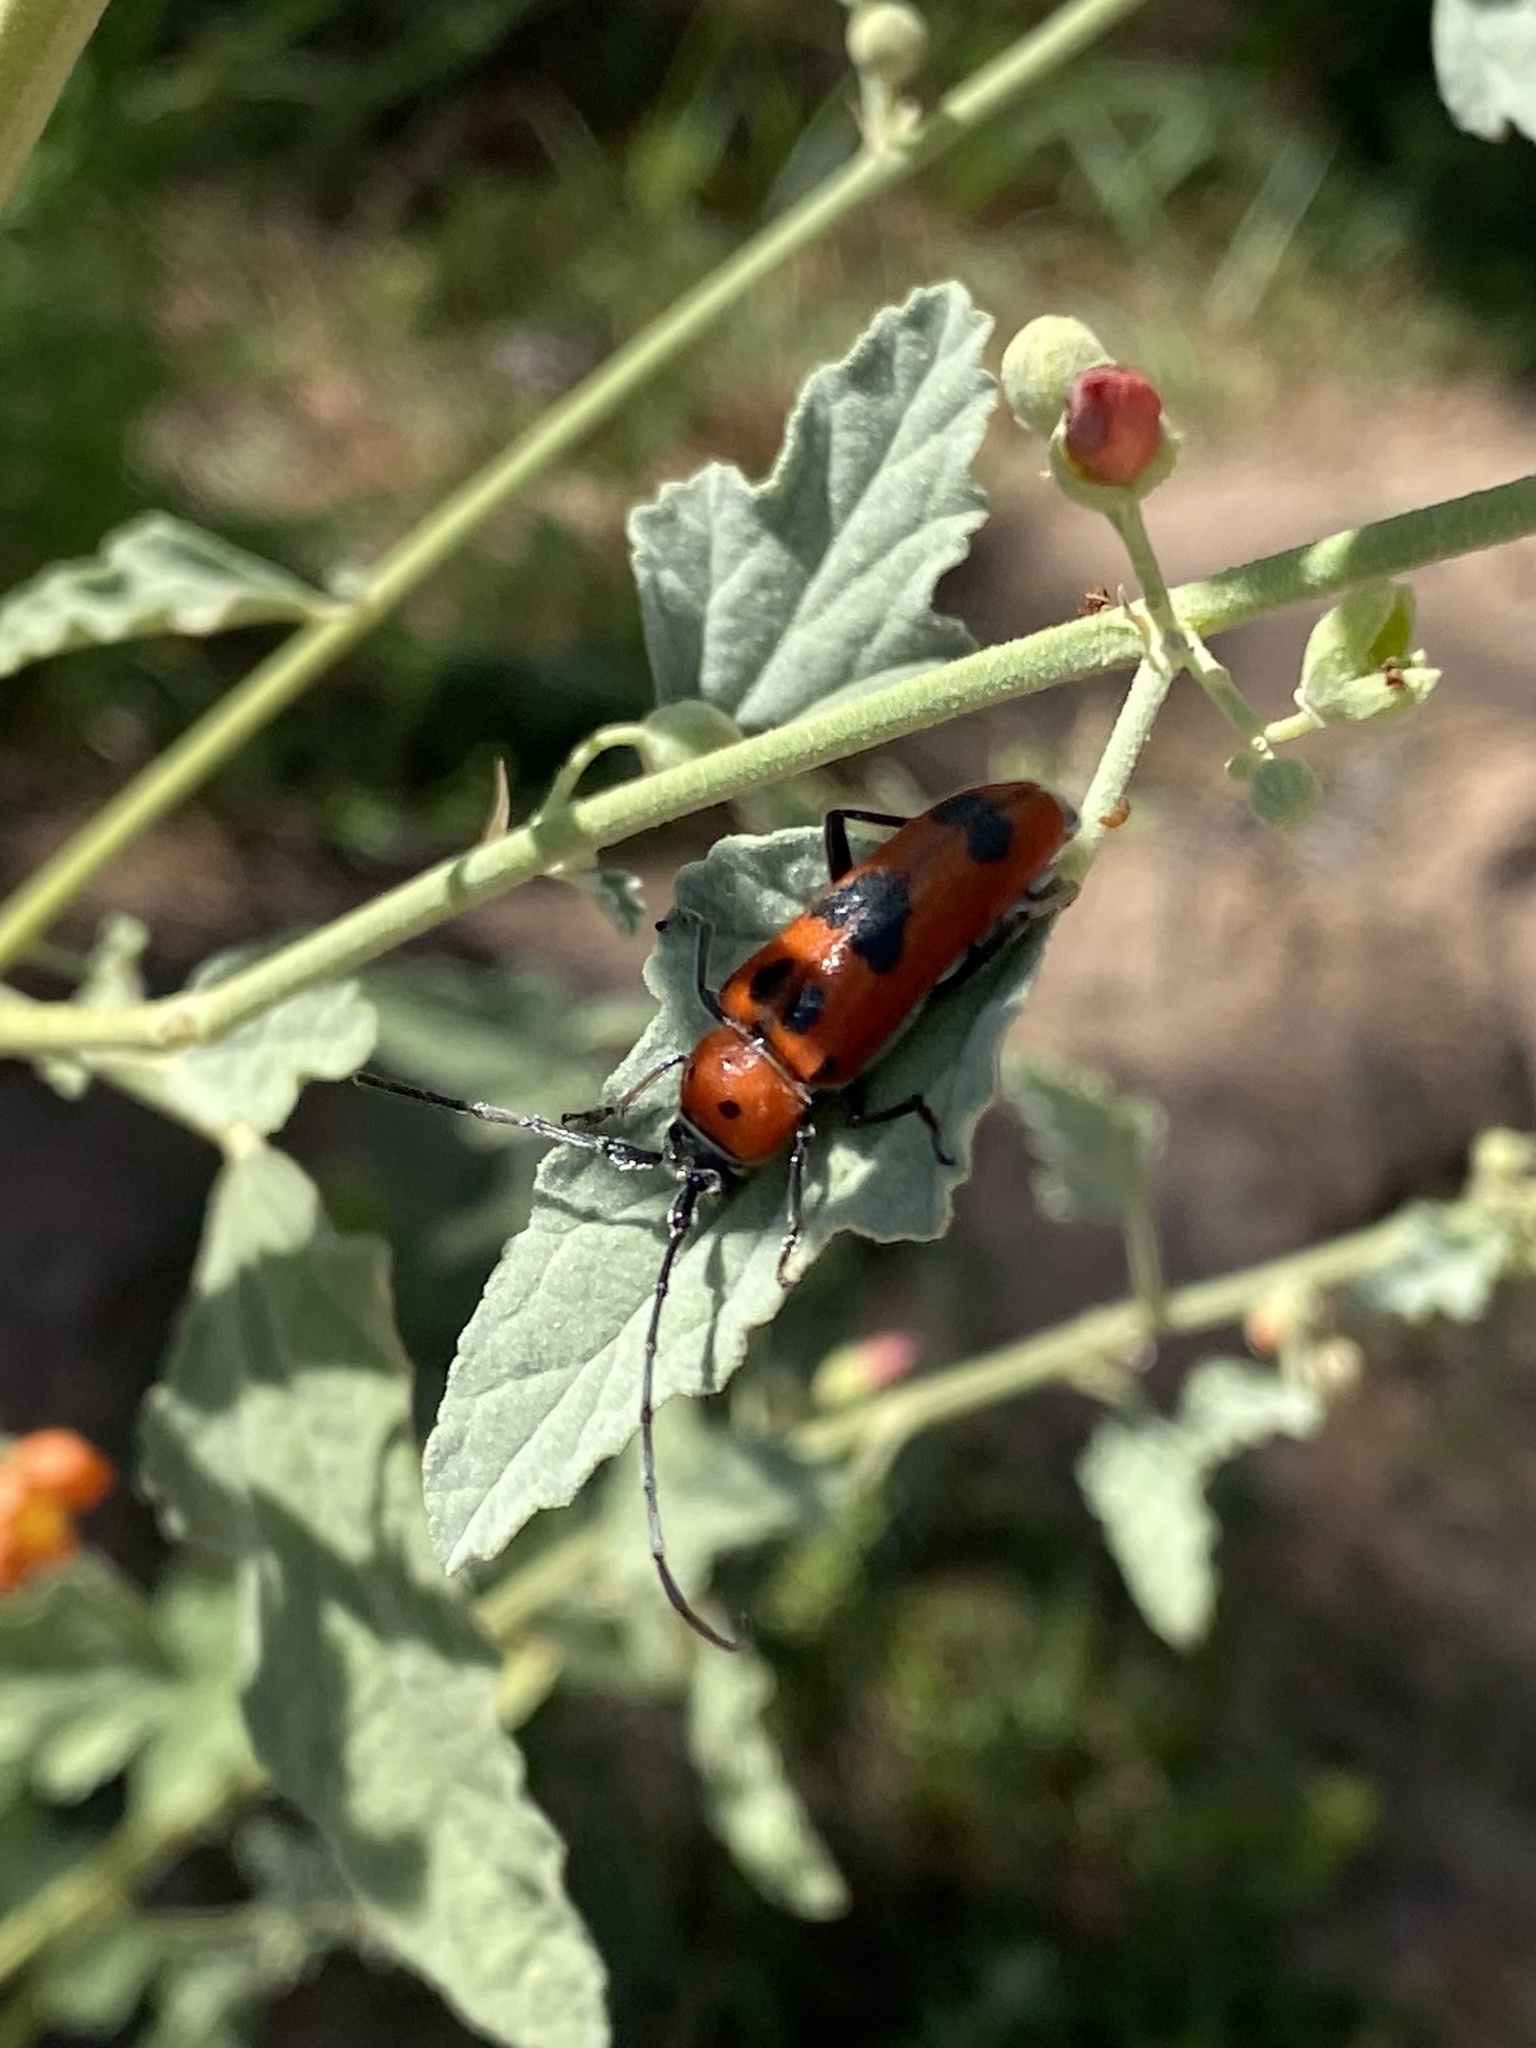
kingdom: Animalia
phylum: Arthropoda
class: Insecta
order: Coleoptera
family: Cerambycidae
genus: Tylosis
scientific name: Tylosis maculatus
